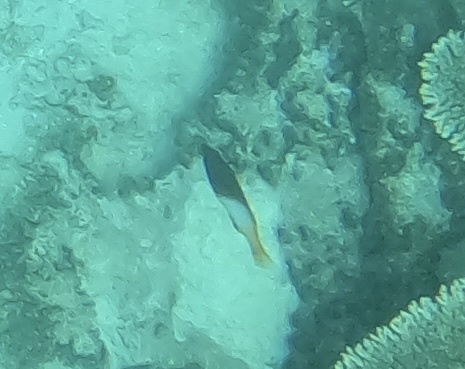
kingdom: Animalia
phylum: Chordata
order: Perciformes
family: Labridae
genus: Bodianus
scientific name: Bodianus axillaris
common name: Axilspot hogfish
